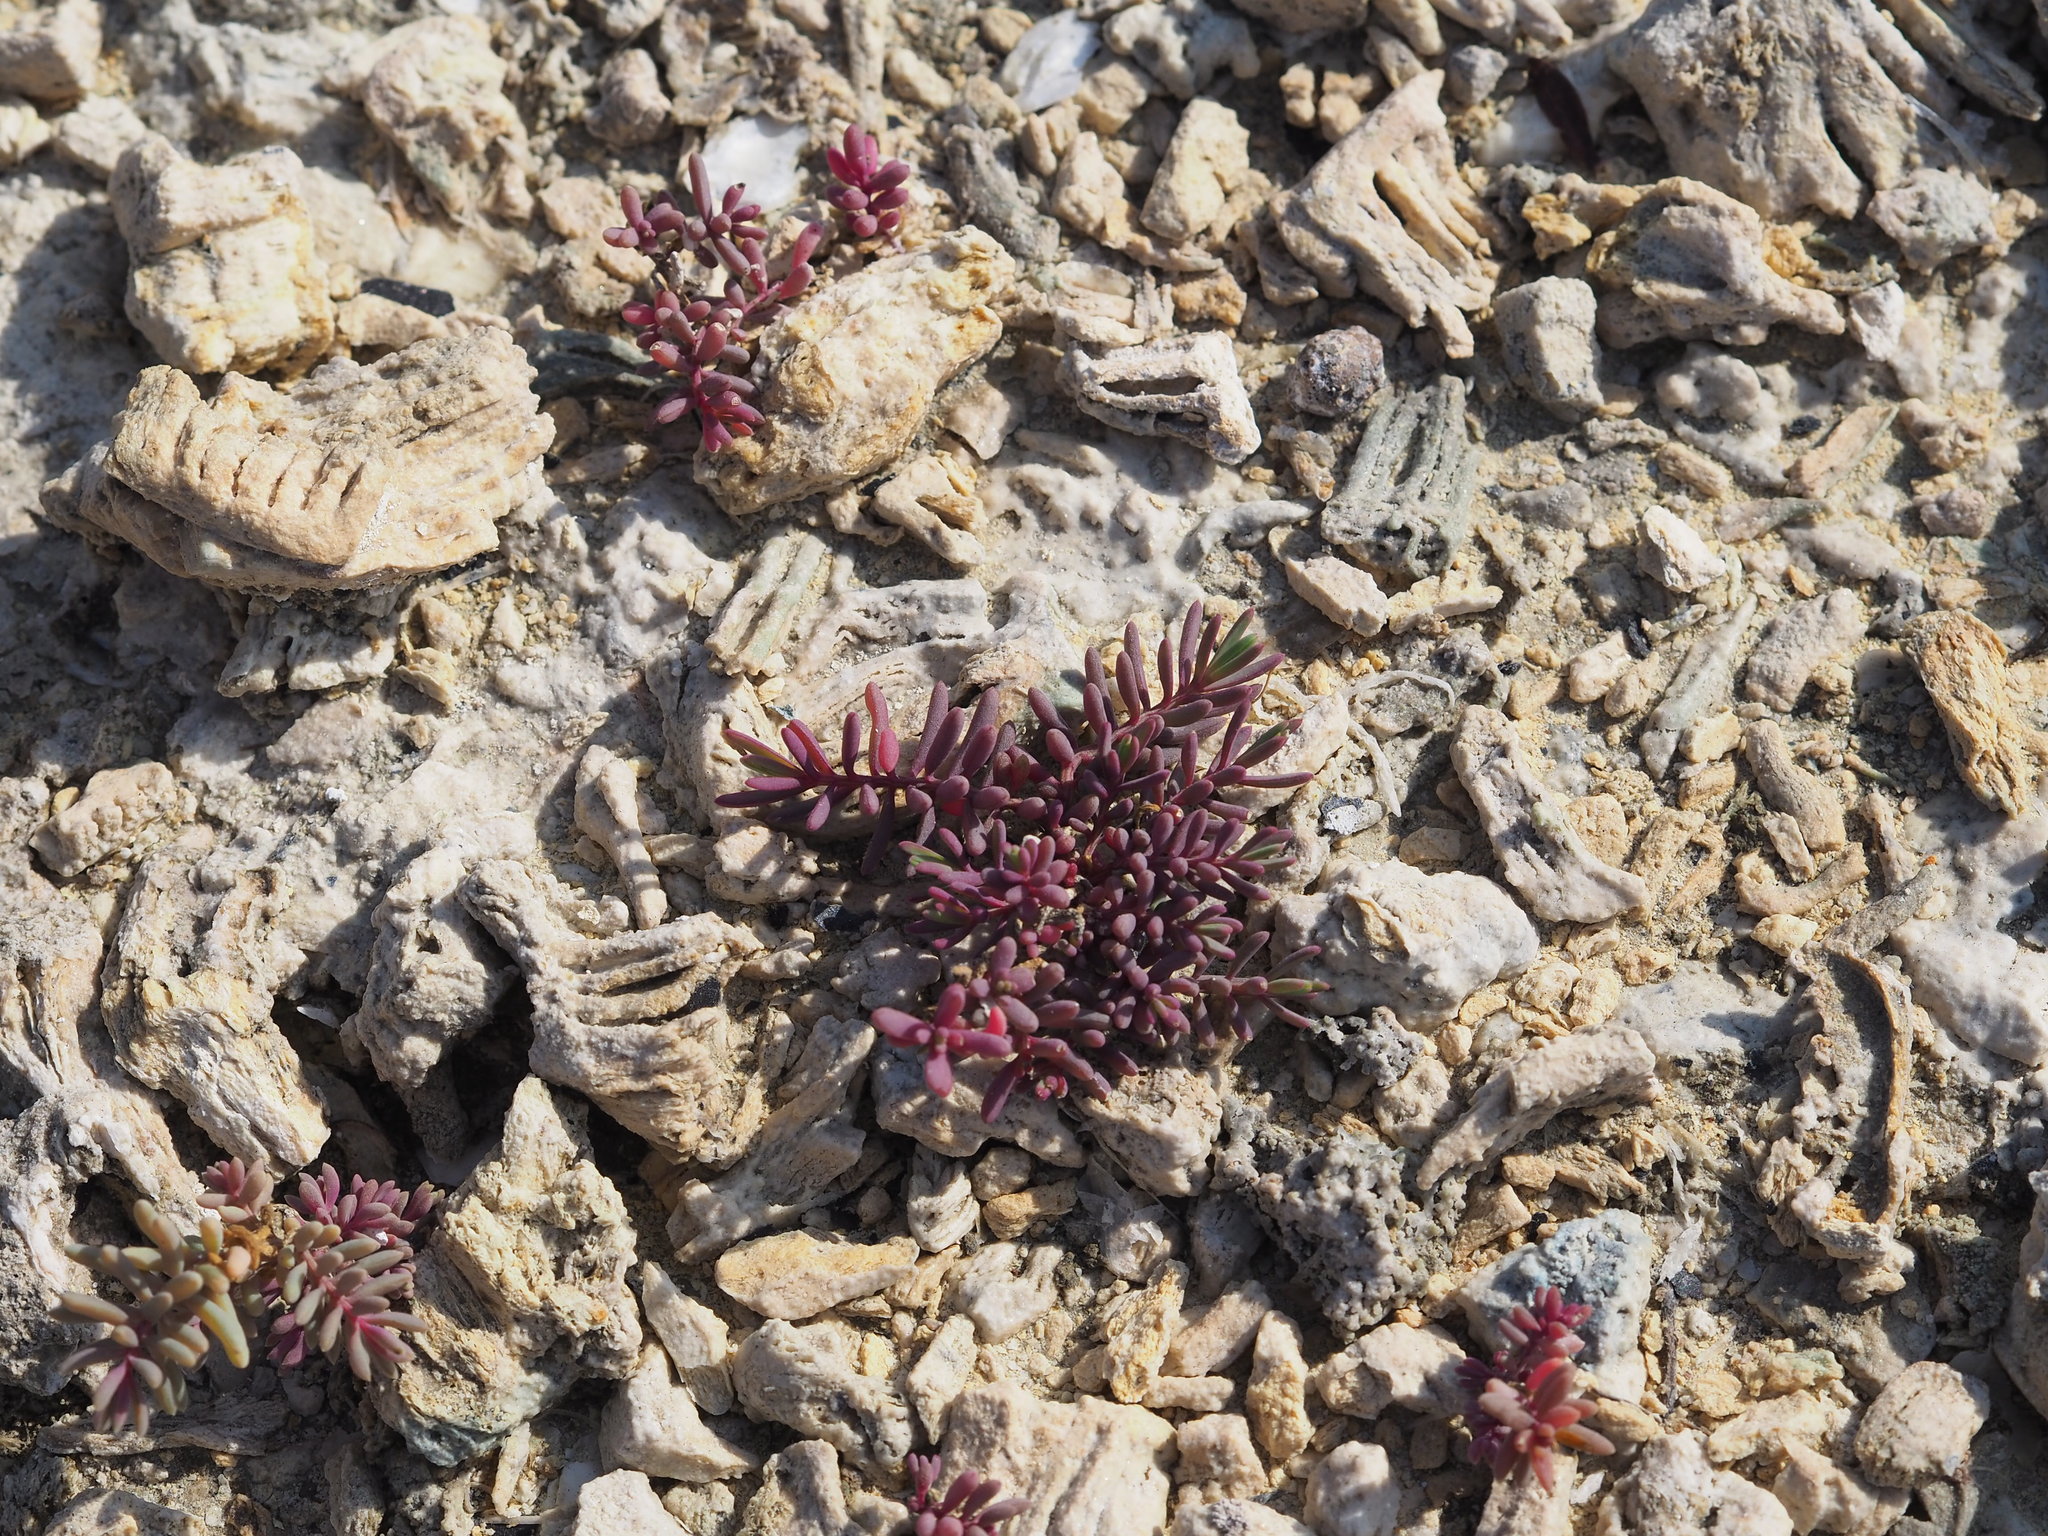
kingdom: Plantae
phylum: Tracheophyta
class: Magnoliopsida
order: Caryophyllales
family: Amaranthaceae
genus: Suaeda
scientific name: Suaeda maritima
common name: Annual sea-blite
